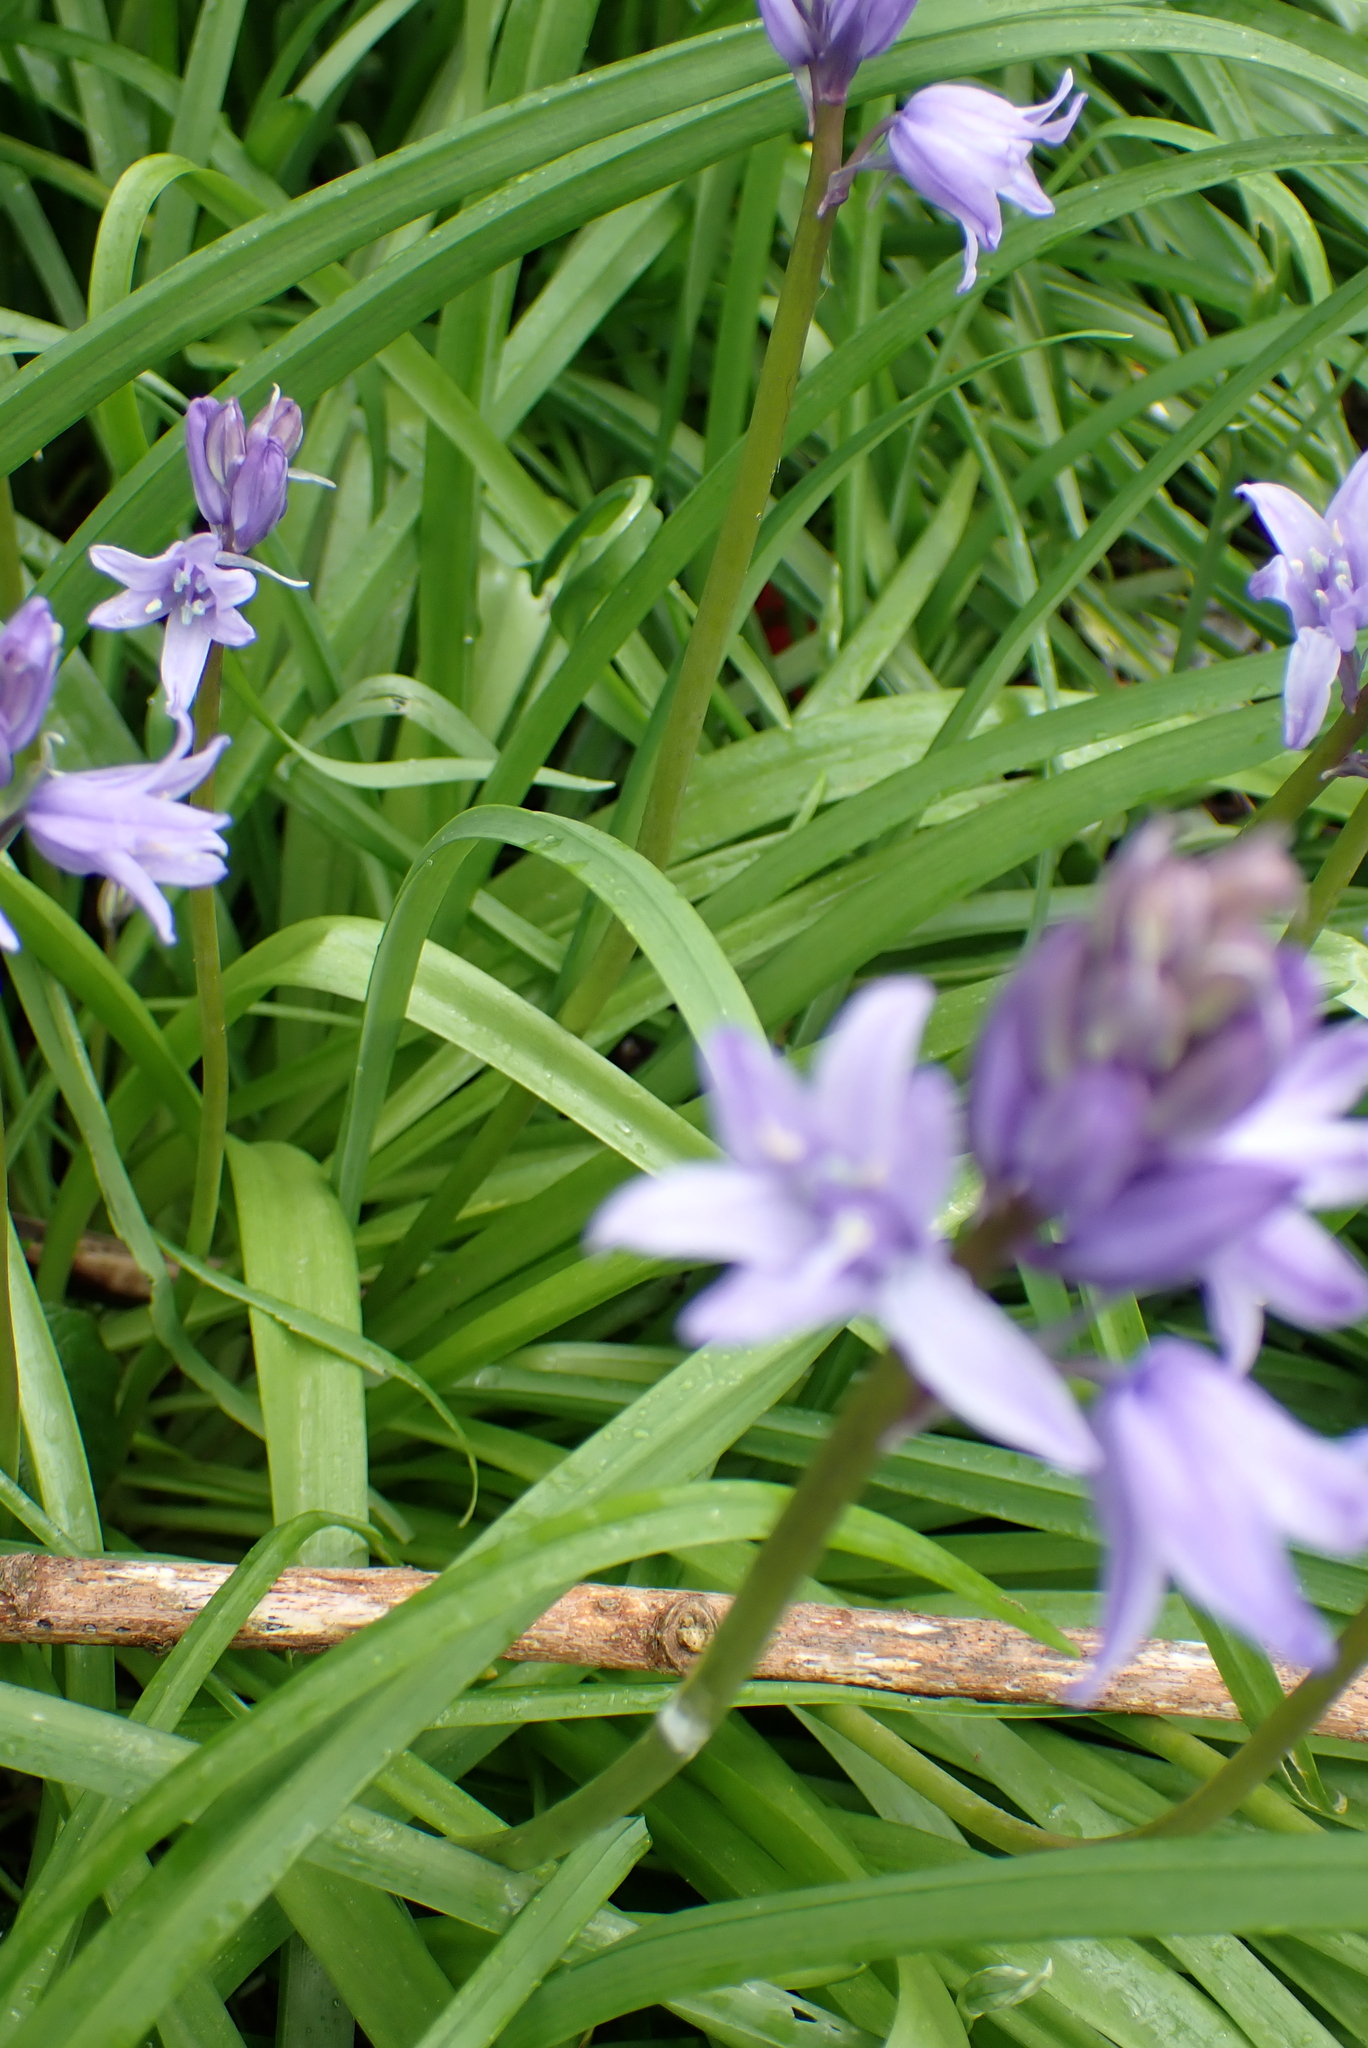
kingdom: Plantae
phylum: Tracheophyta
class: Liliopsida
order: Asparagales
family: Asparagaceae
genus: Hyacinthoides
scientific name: Hyacinthoides massartiana
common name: Hyacinthoides
